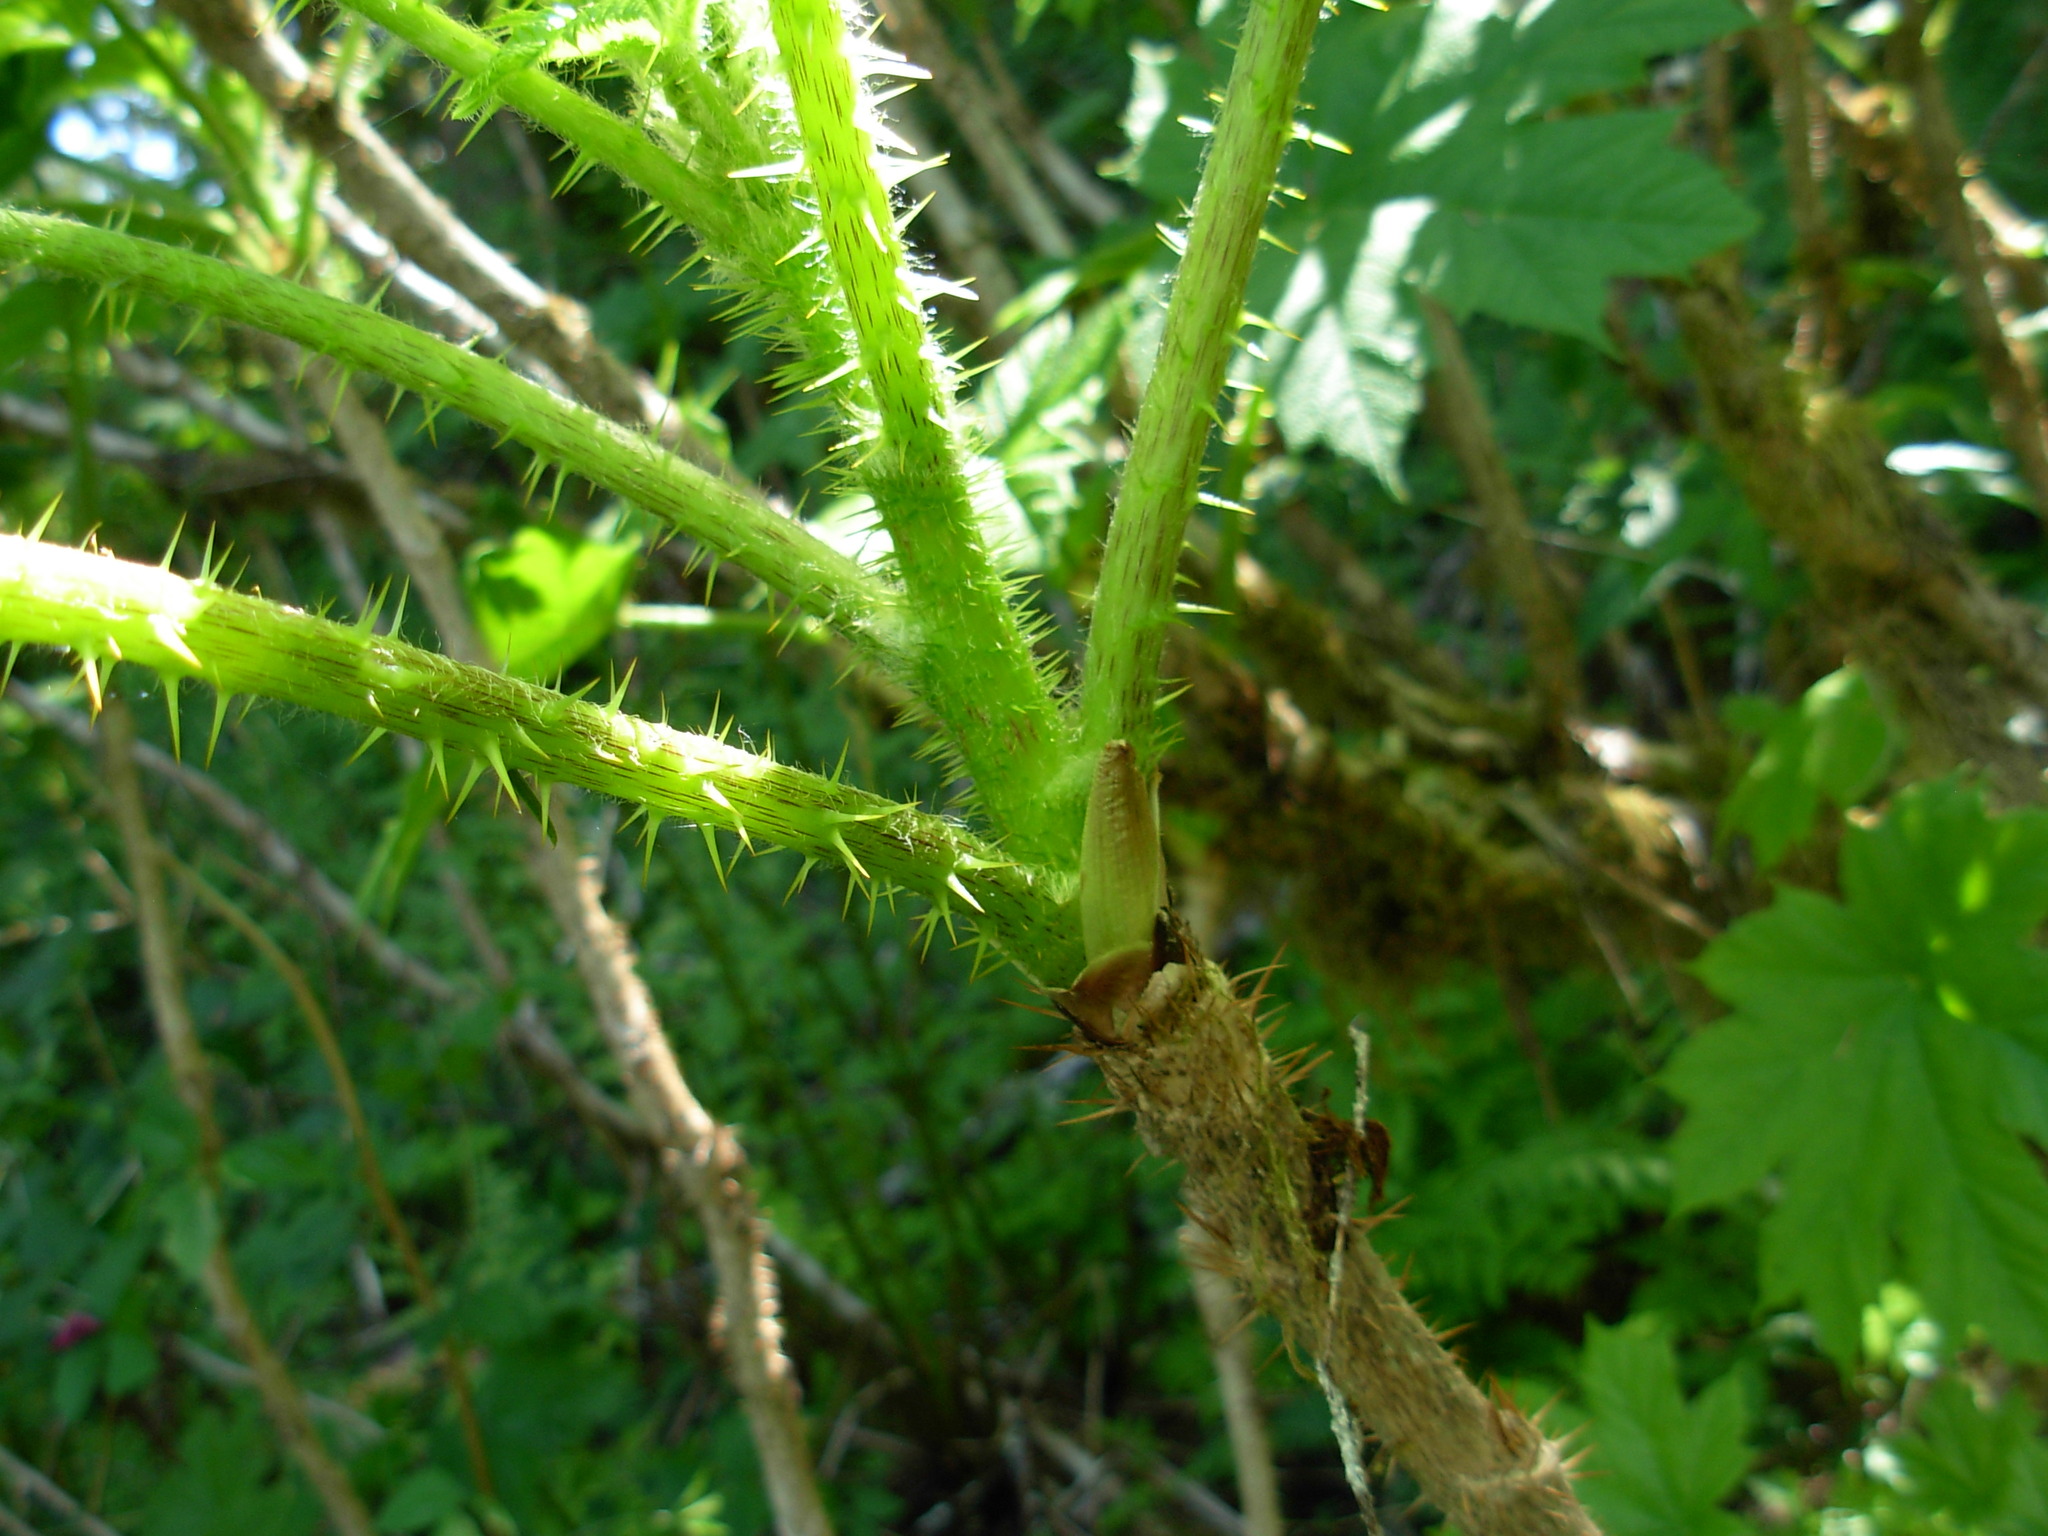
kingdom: Plantae
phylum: Tracheophyta
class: Magnoliopsida
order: Apiales
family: Araliaceae
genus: Oplopanax
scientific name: Oplopanax horridus
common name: Devil's walking-stick
